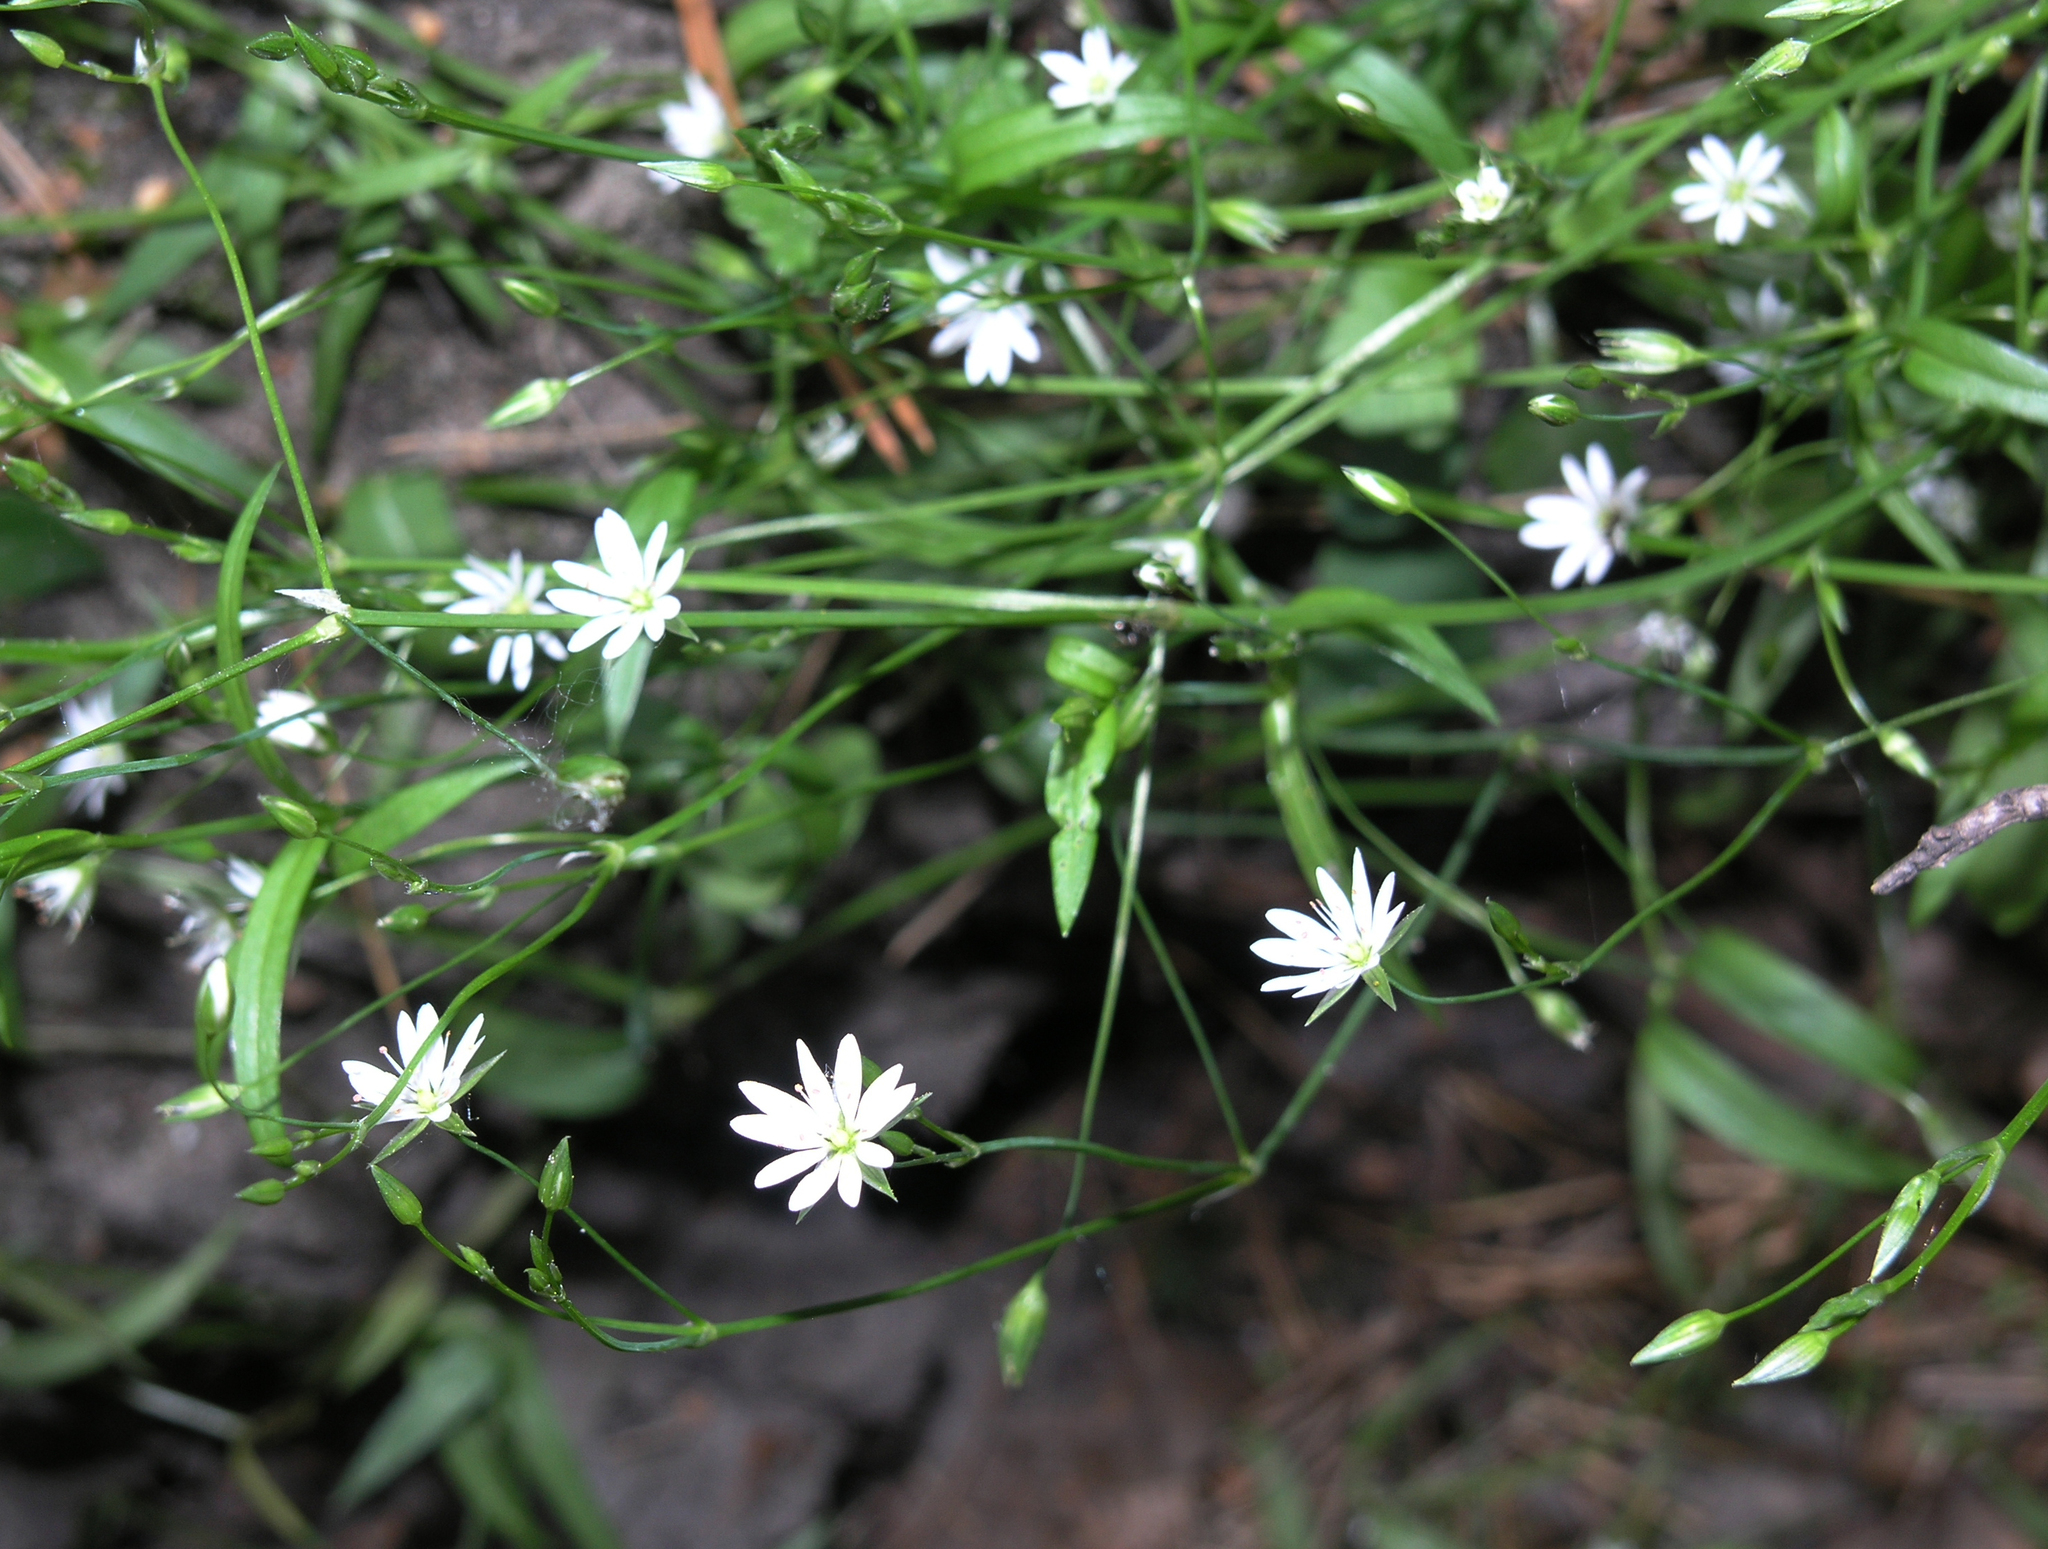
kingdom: Plantae
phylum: Tracheophyta
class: Magnoliopsida
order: Caryophyllales
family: Caryophyllaceae
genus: Stellaria
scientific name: Stellaria graminea
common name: Grass-like starwort
